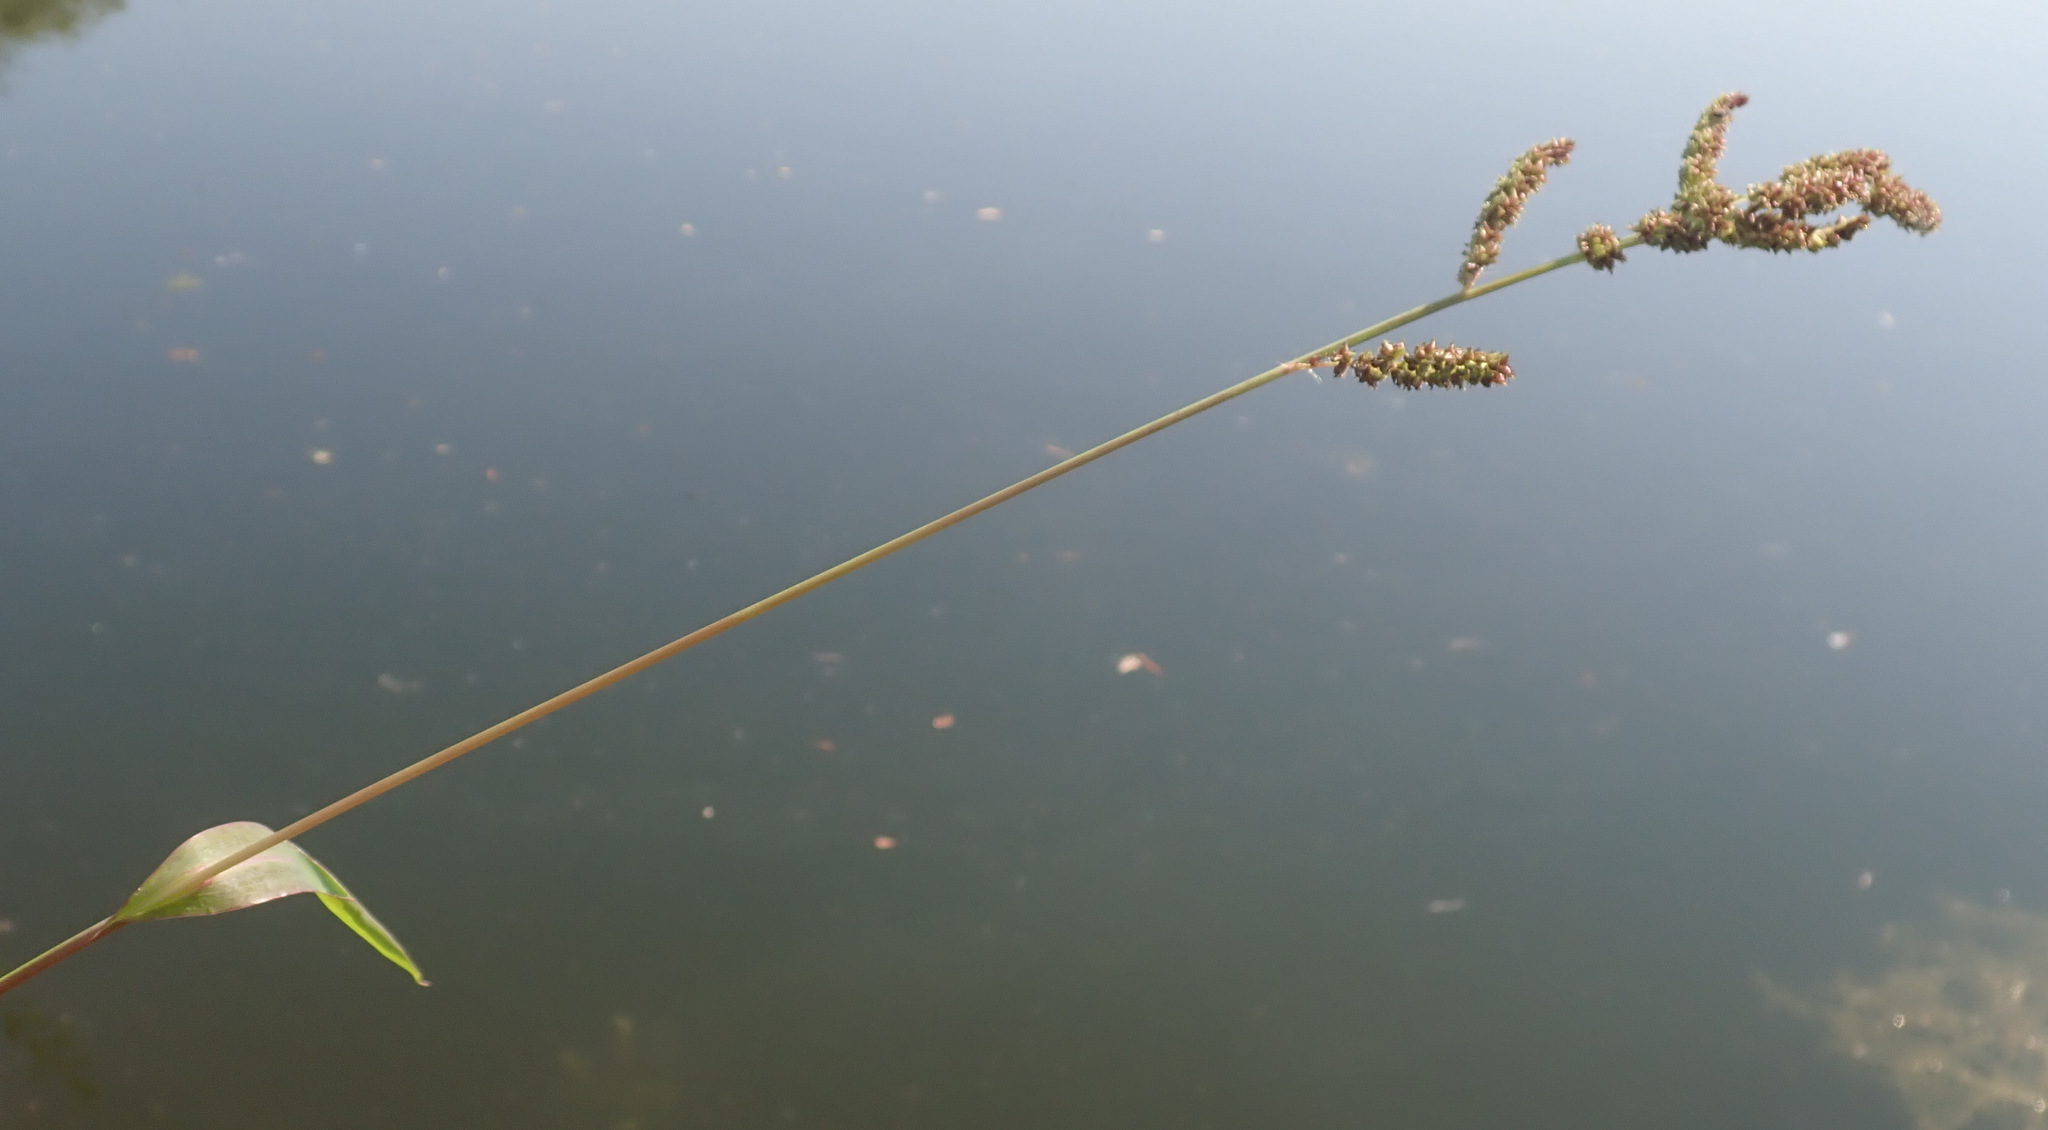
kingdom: Plantae
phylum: Tracheophyta
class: Liliopsida
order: Poales
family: Poaceae
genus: Echinochloa
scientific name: Echinochloa muricata
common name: American barnyard grass
